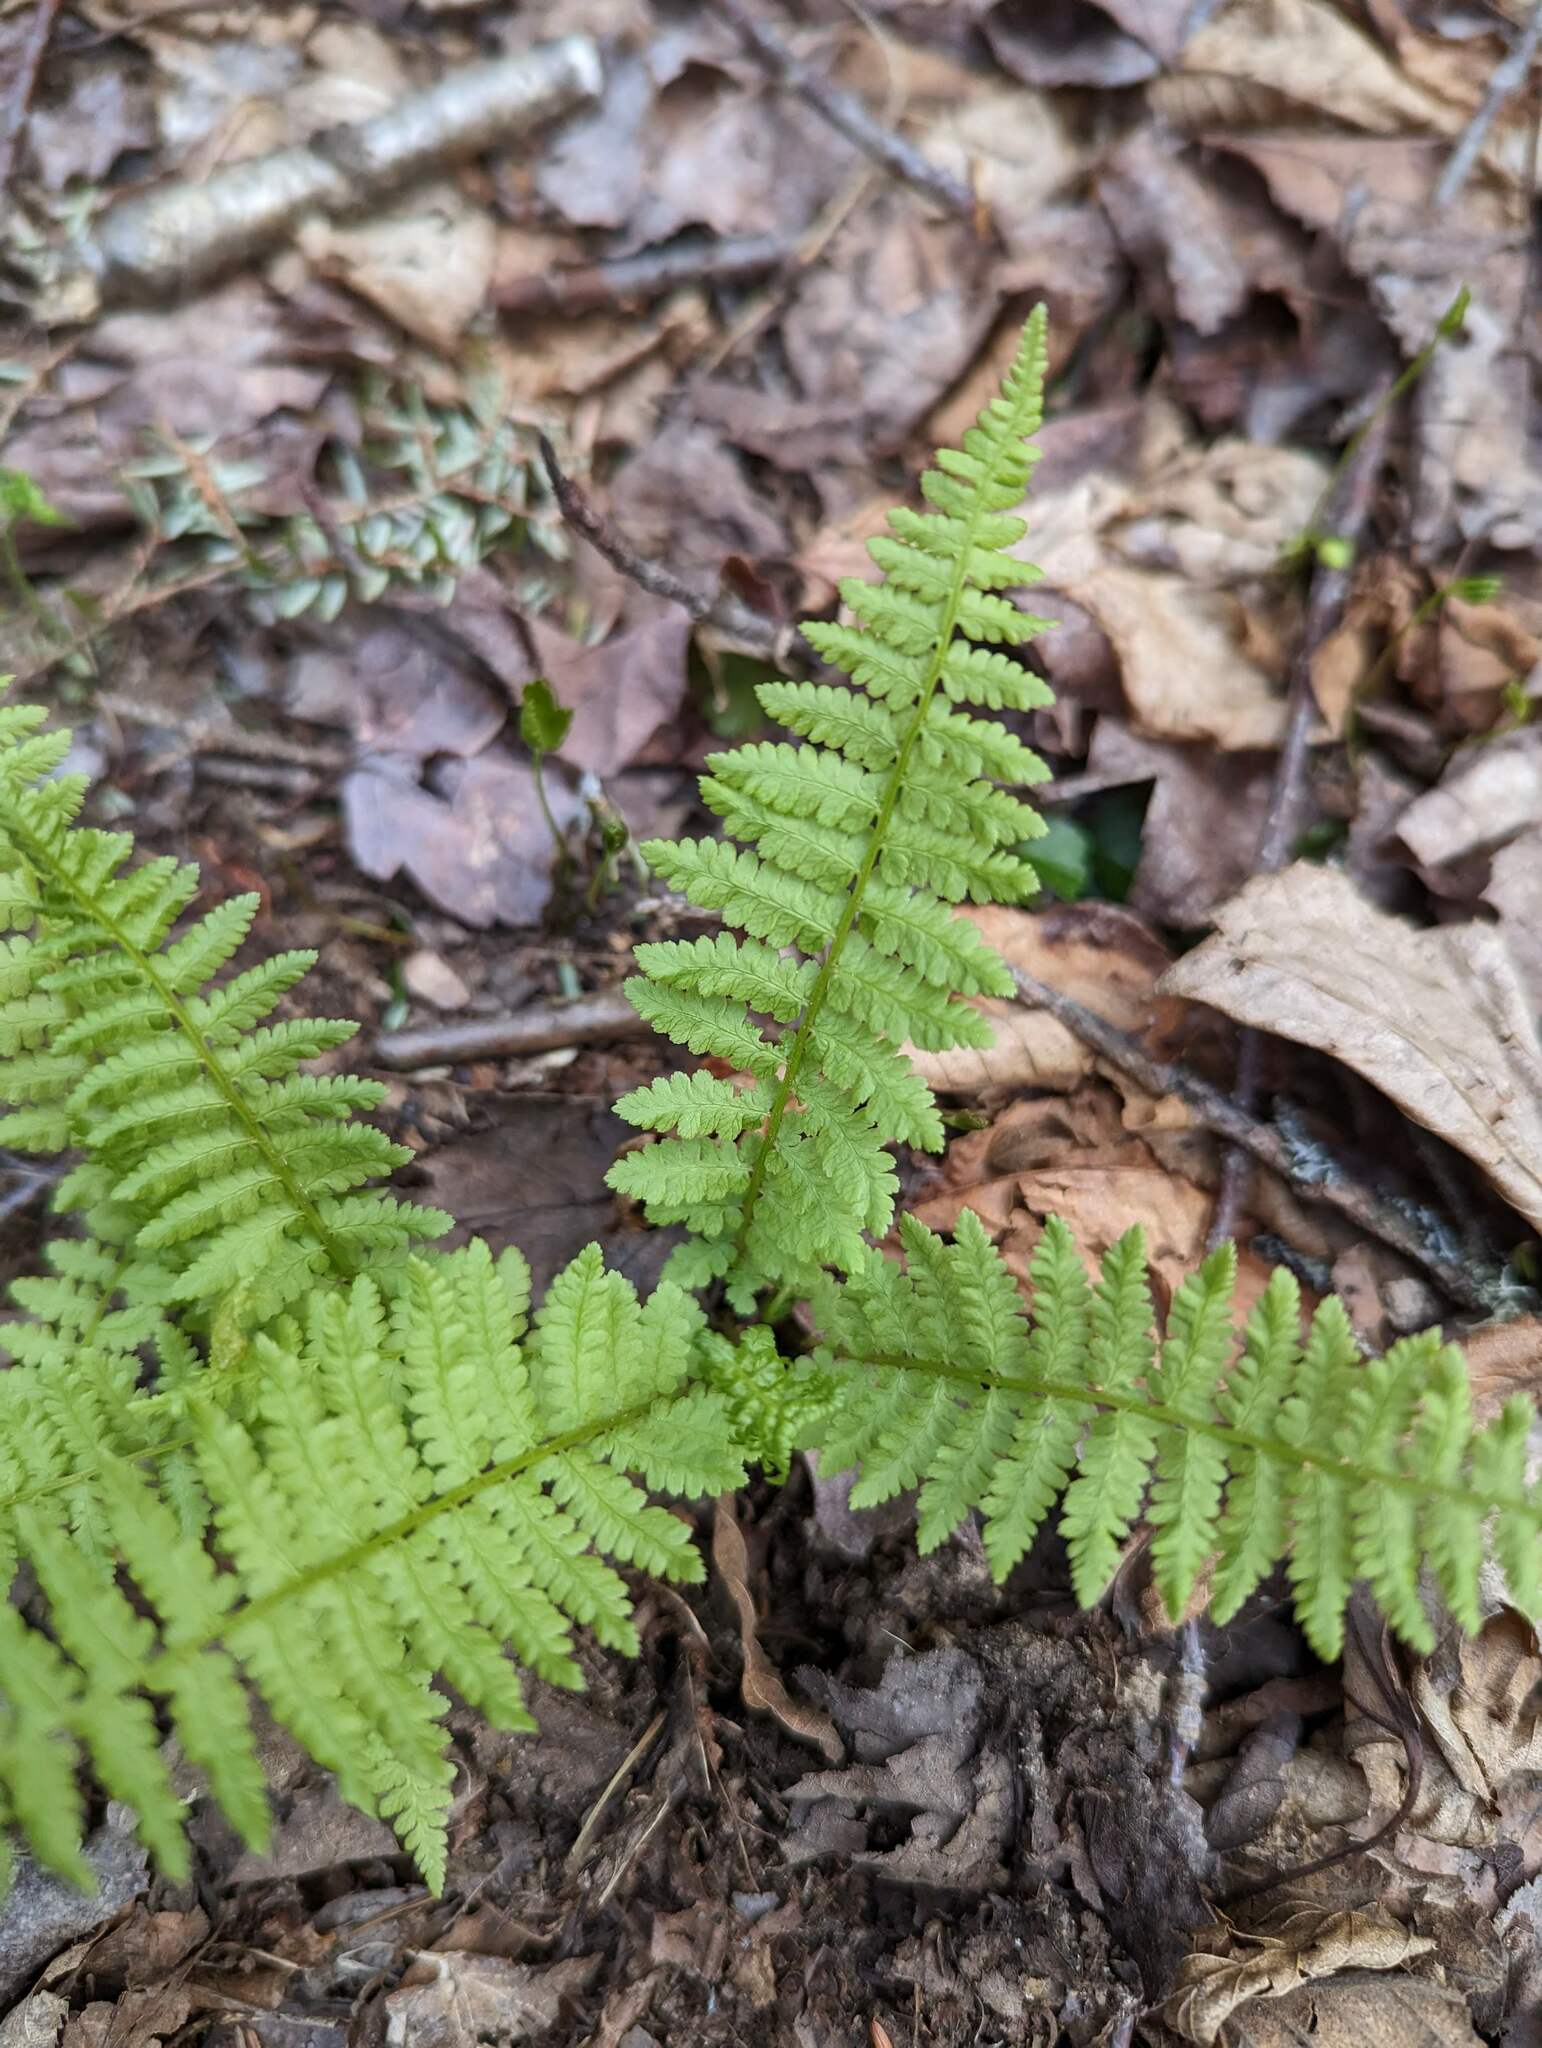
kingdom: Plantae
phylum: Tracheophyta
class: Polypodiopsida
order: Polypodiales
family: Athyriaceae
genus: Athyrium
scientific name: Athyrium angustum
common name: Northern lady fern
